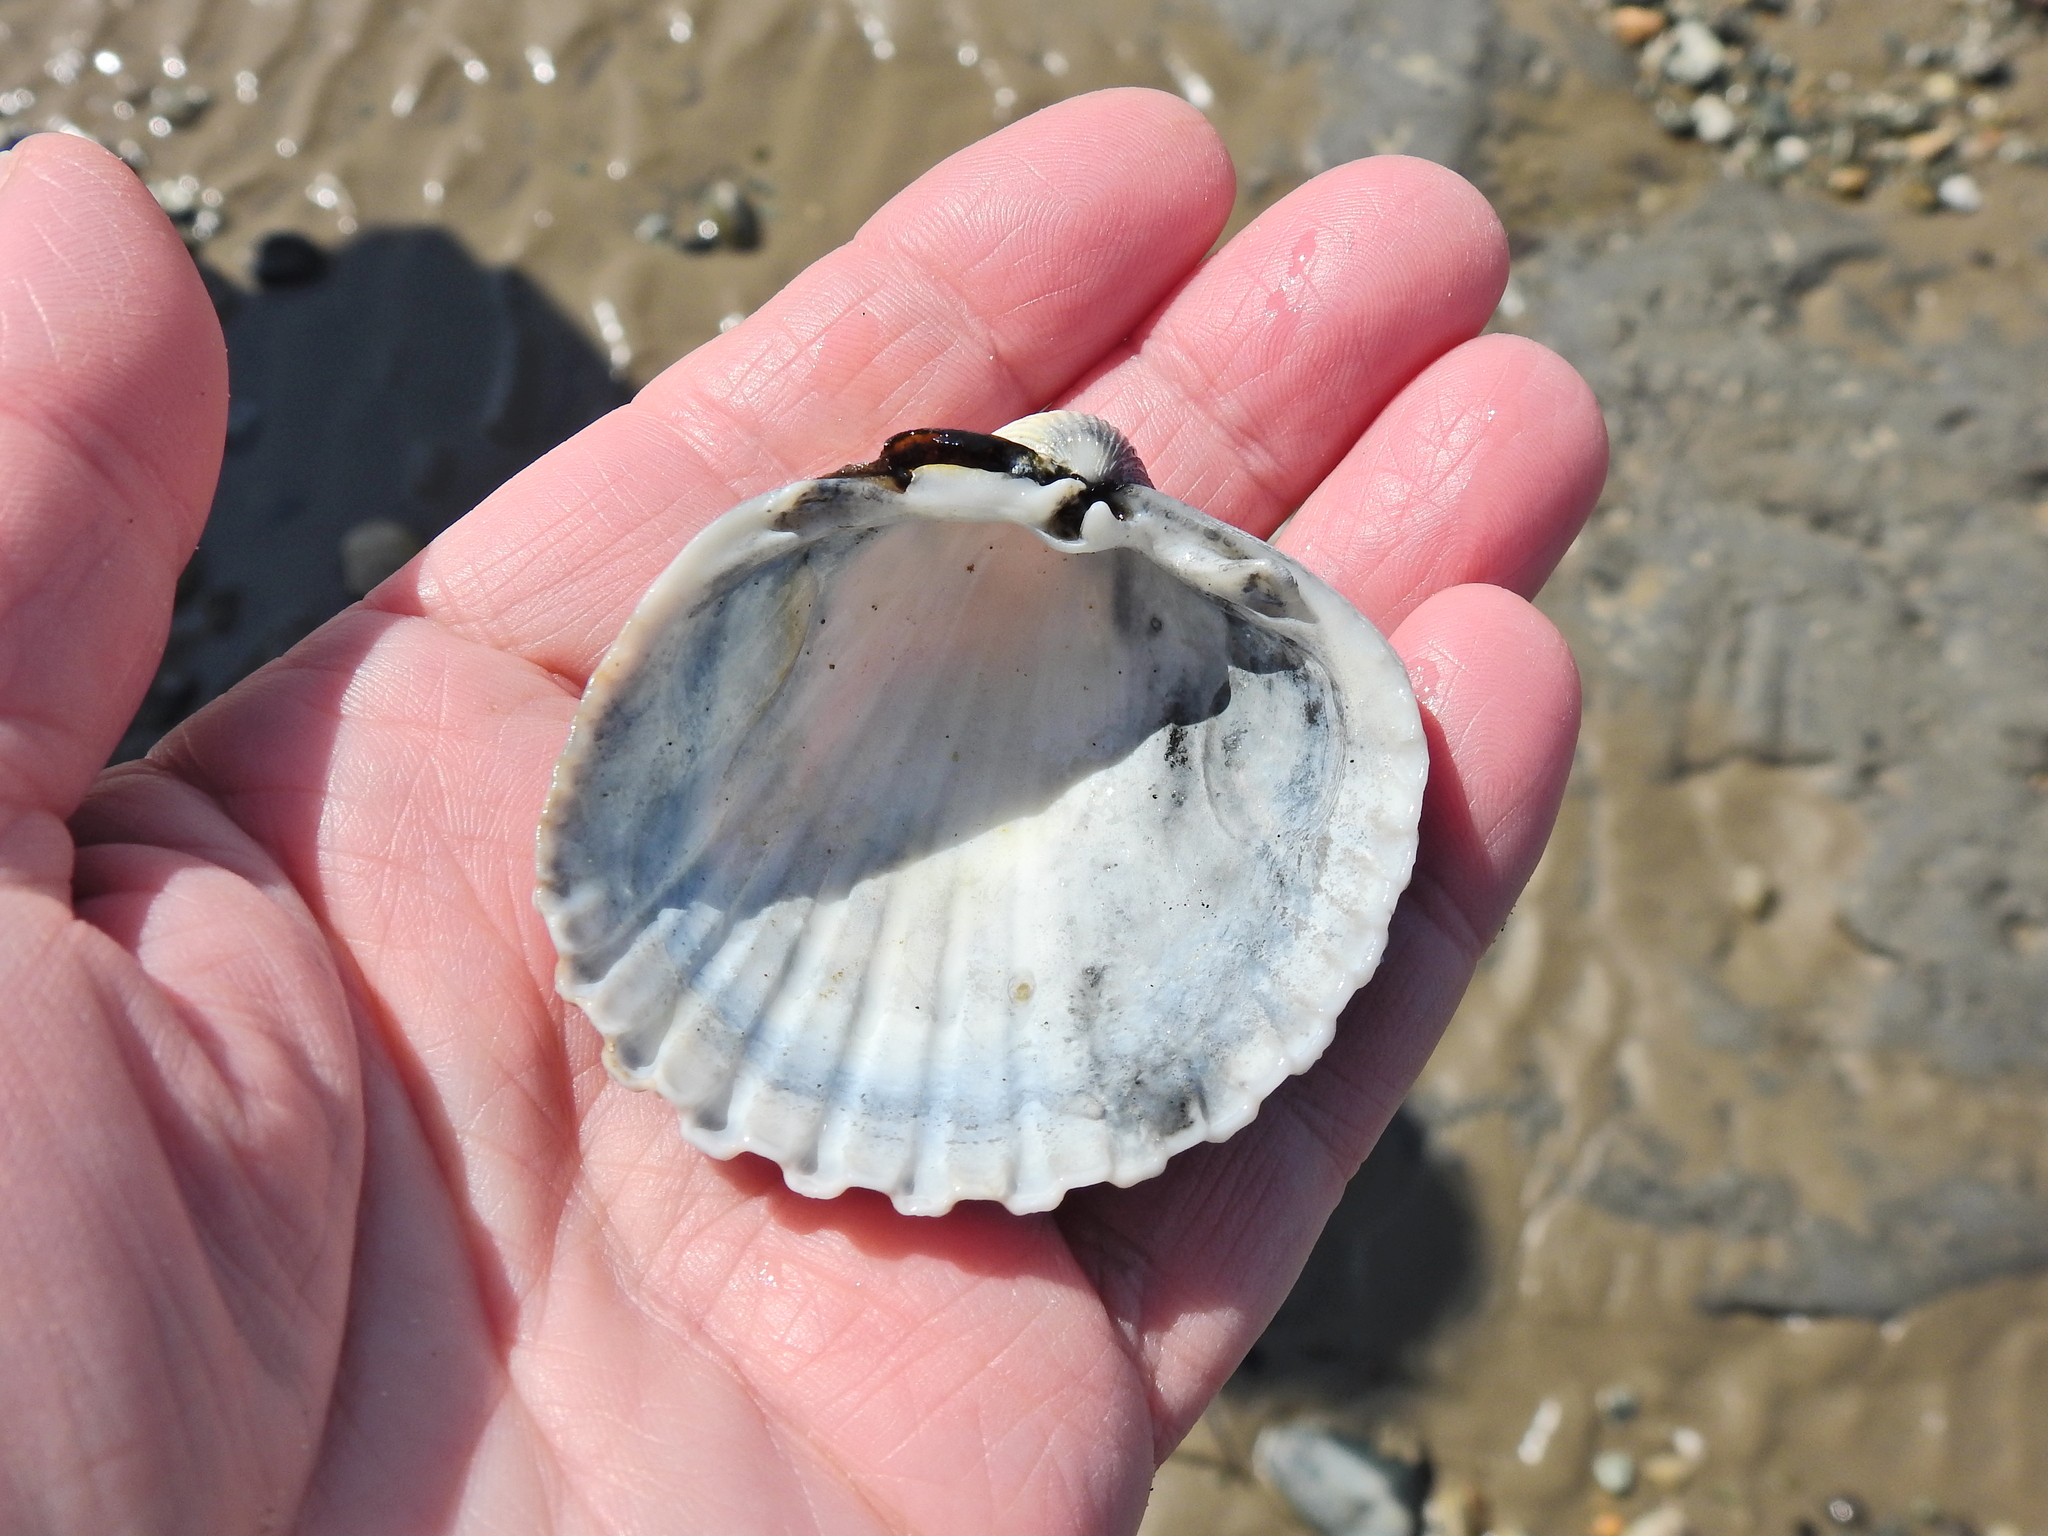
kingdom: Animalia
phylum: Mollusca
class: Bivalvia
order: Cardiida
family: Cardiidae
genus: Acanthocardia
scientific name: Acanthocardia echinata
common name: Prickly cockle
